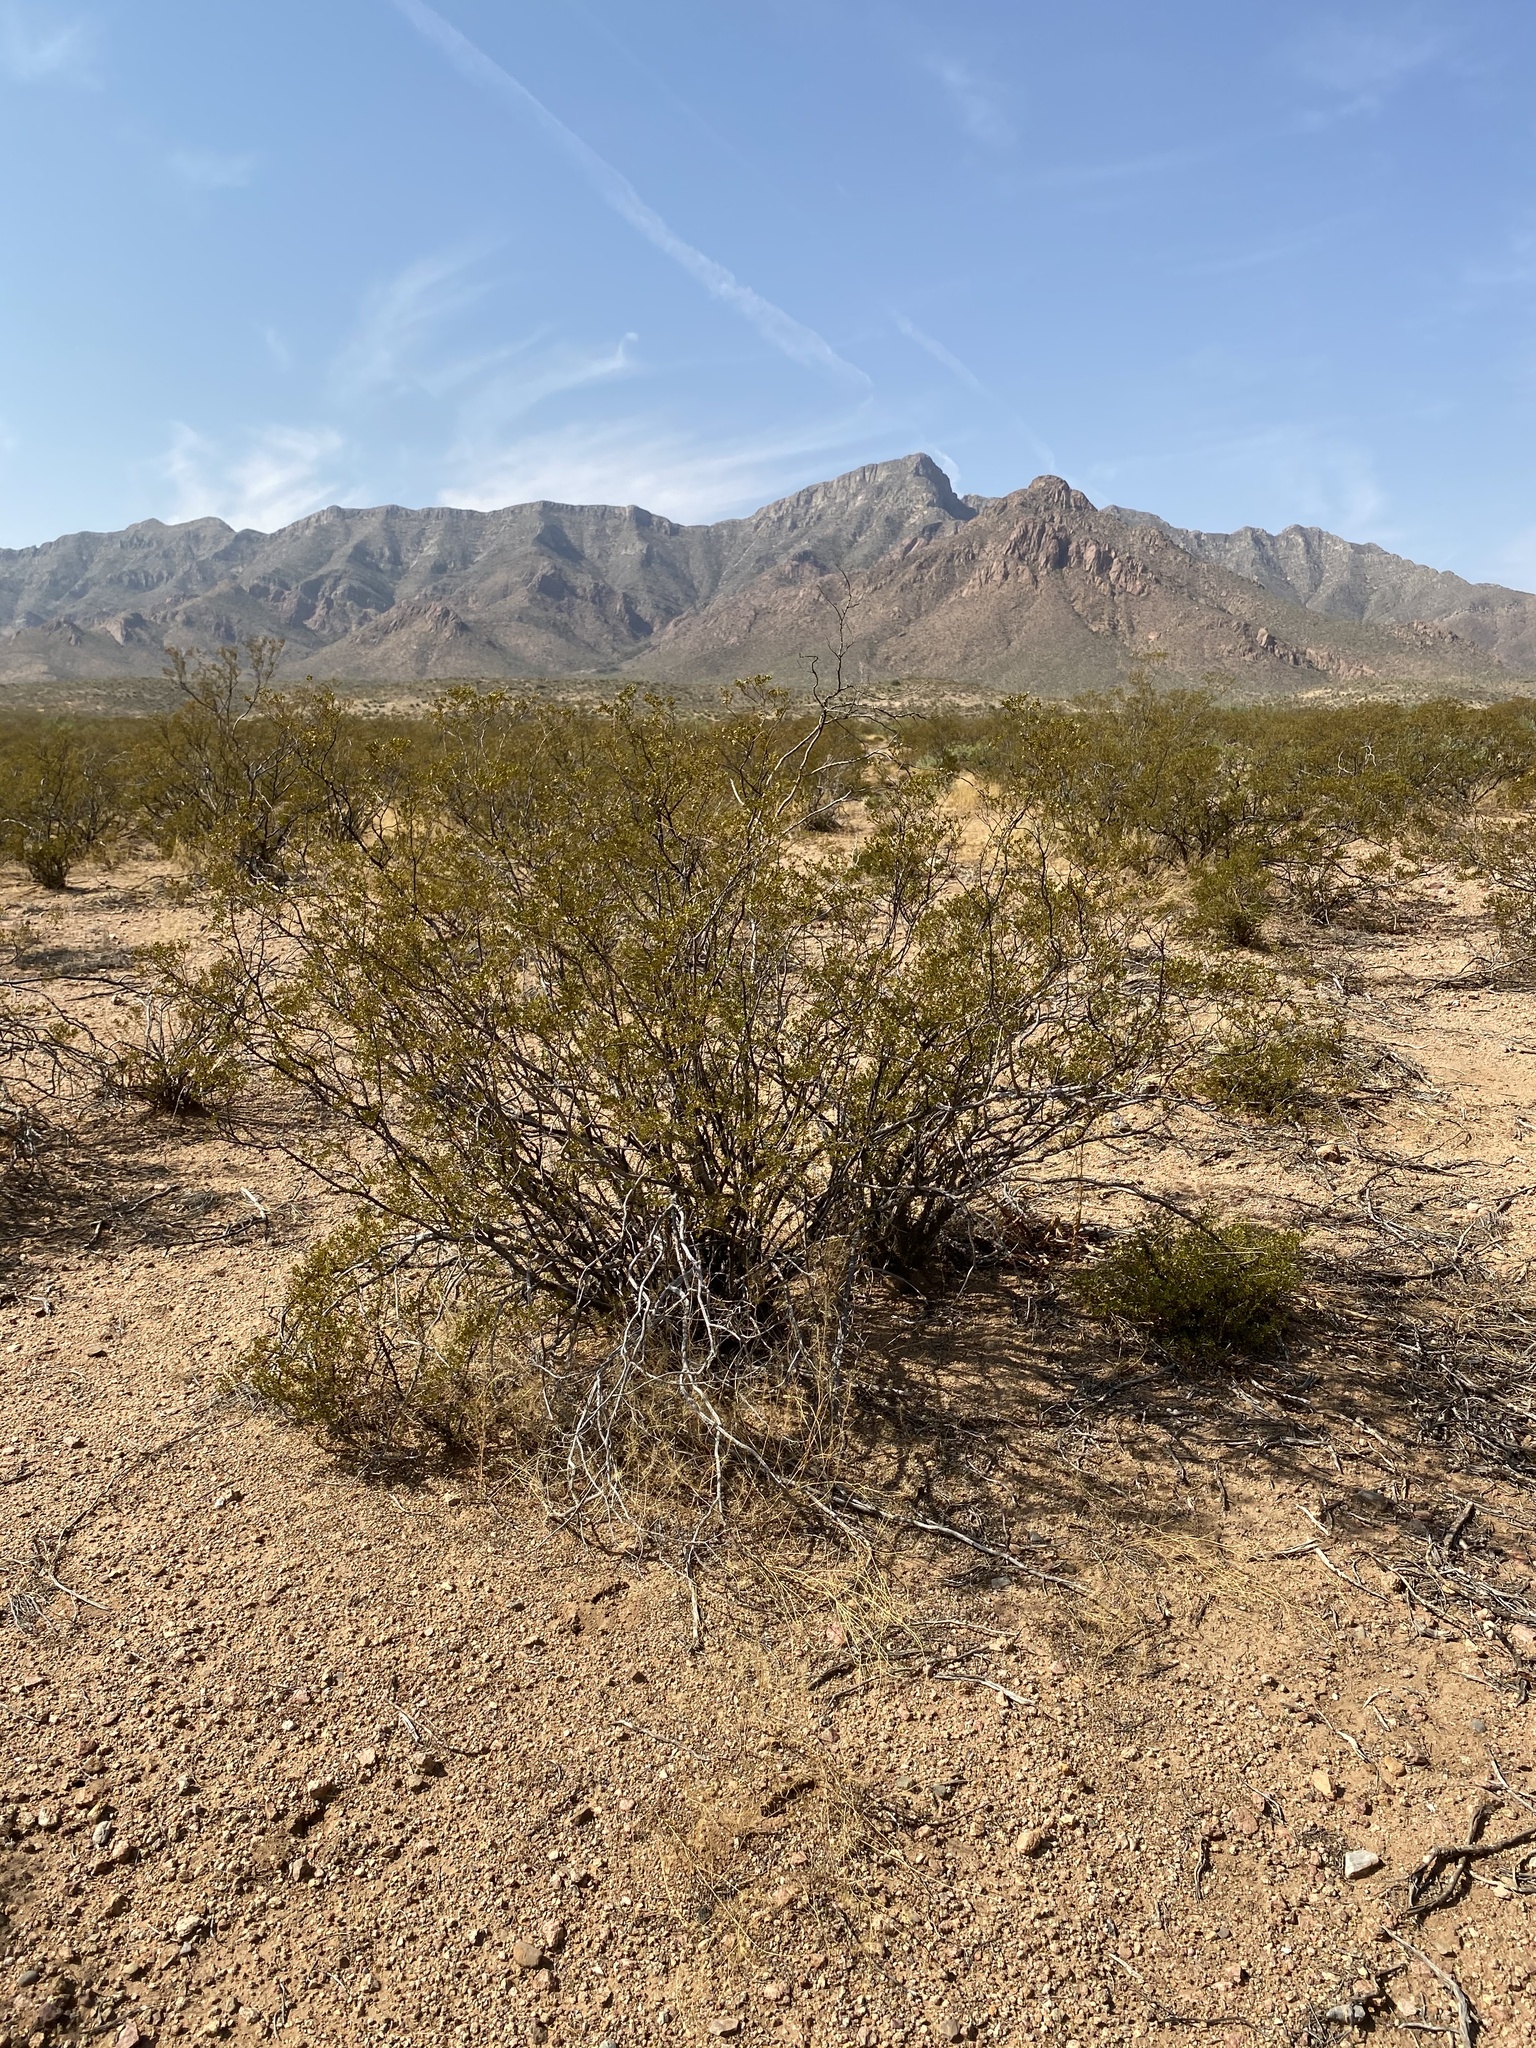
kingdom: Plantae
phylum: Tracheophyta
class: Magnoliopsida
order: Zygophyllales
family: Zygophyllaceae
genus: Larrea
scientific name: Larrea tridentata
